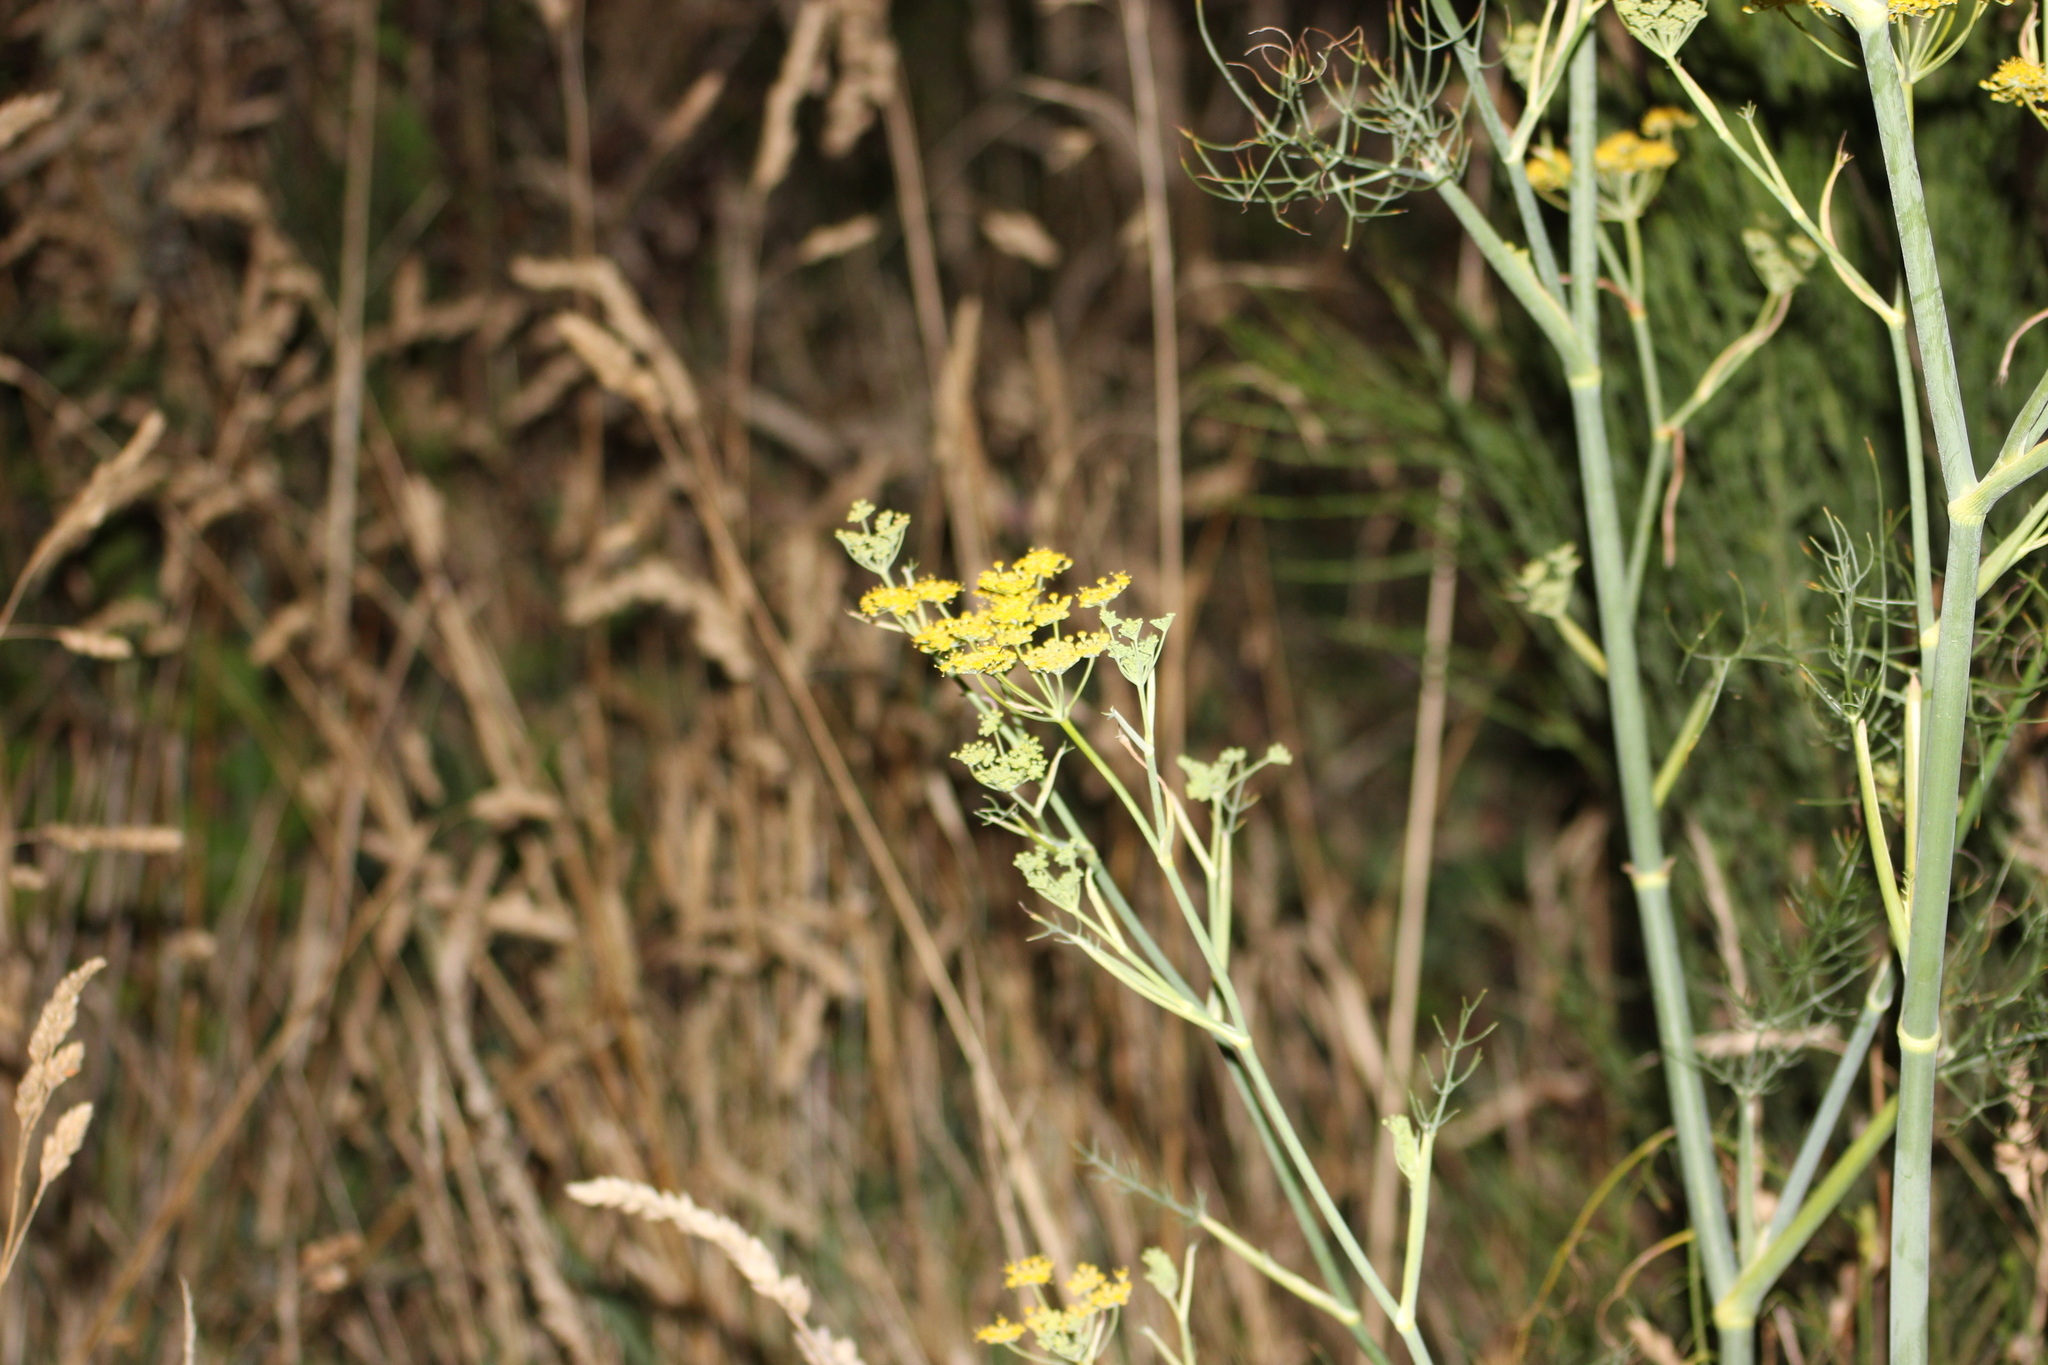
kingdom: Plantae
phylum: Tracheophyta
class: Magnoliopsida
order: Apiales
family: Apiaceae
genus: Foeniculum
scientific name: Foeniculum vulgare
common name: Fennel
